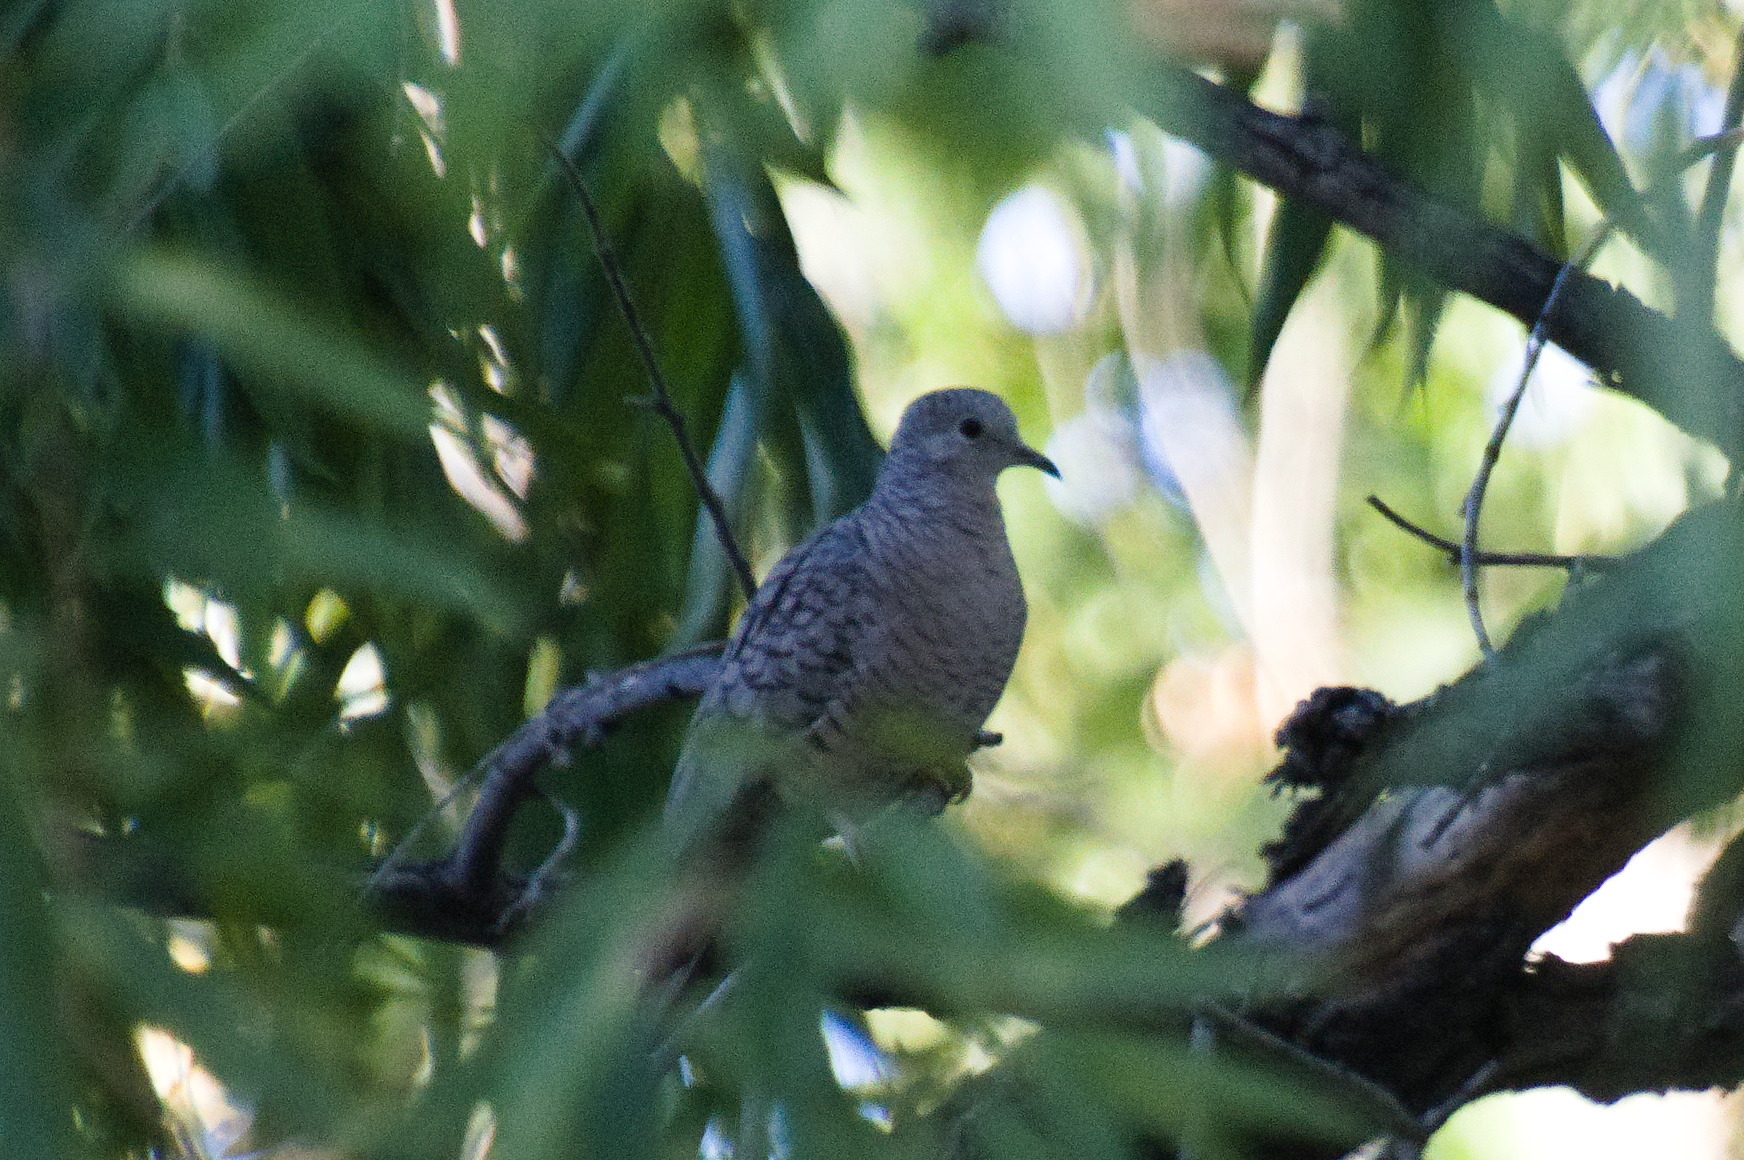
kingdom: Animalia
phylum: Chordata
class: Aves
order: Columbiformes
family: Columbidae
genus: Columbina
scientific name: Columbina inca
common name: Inca dove
